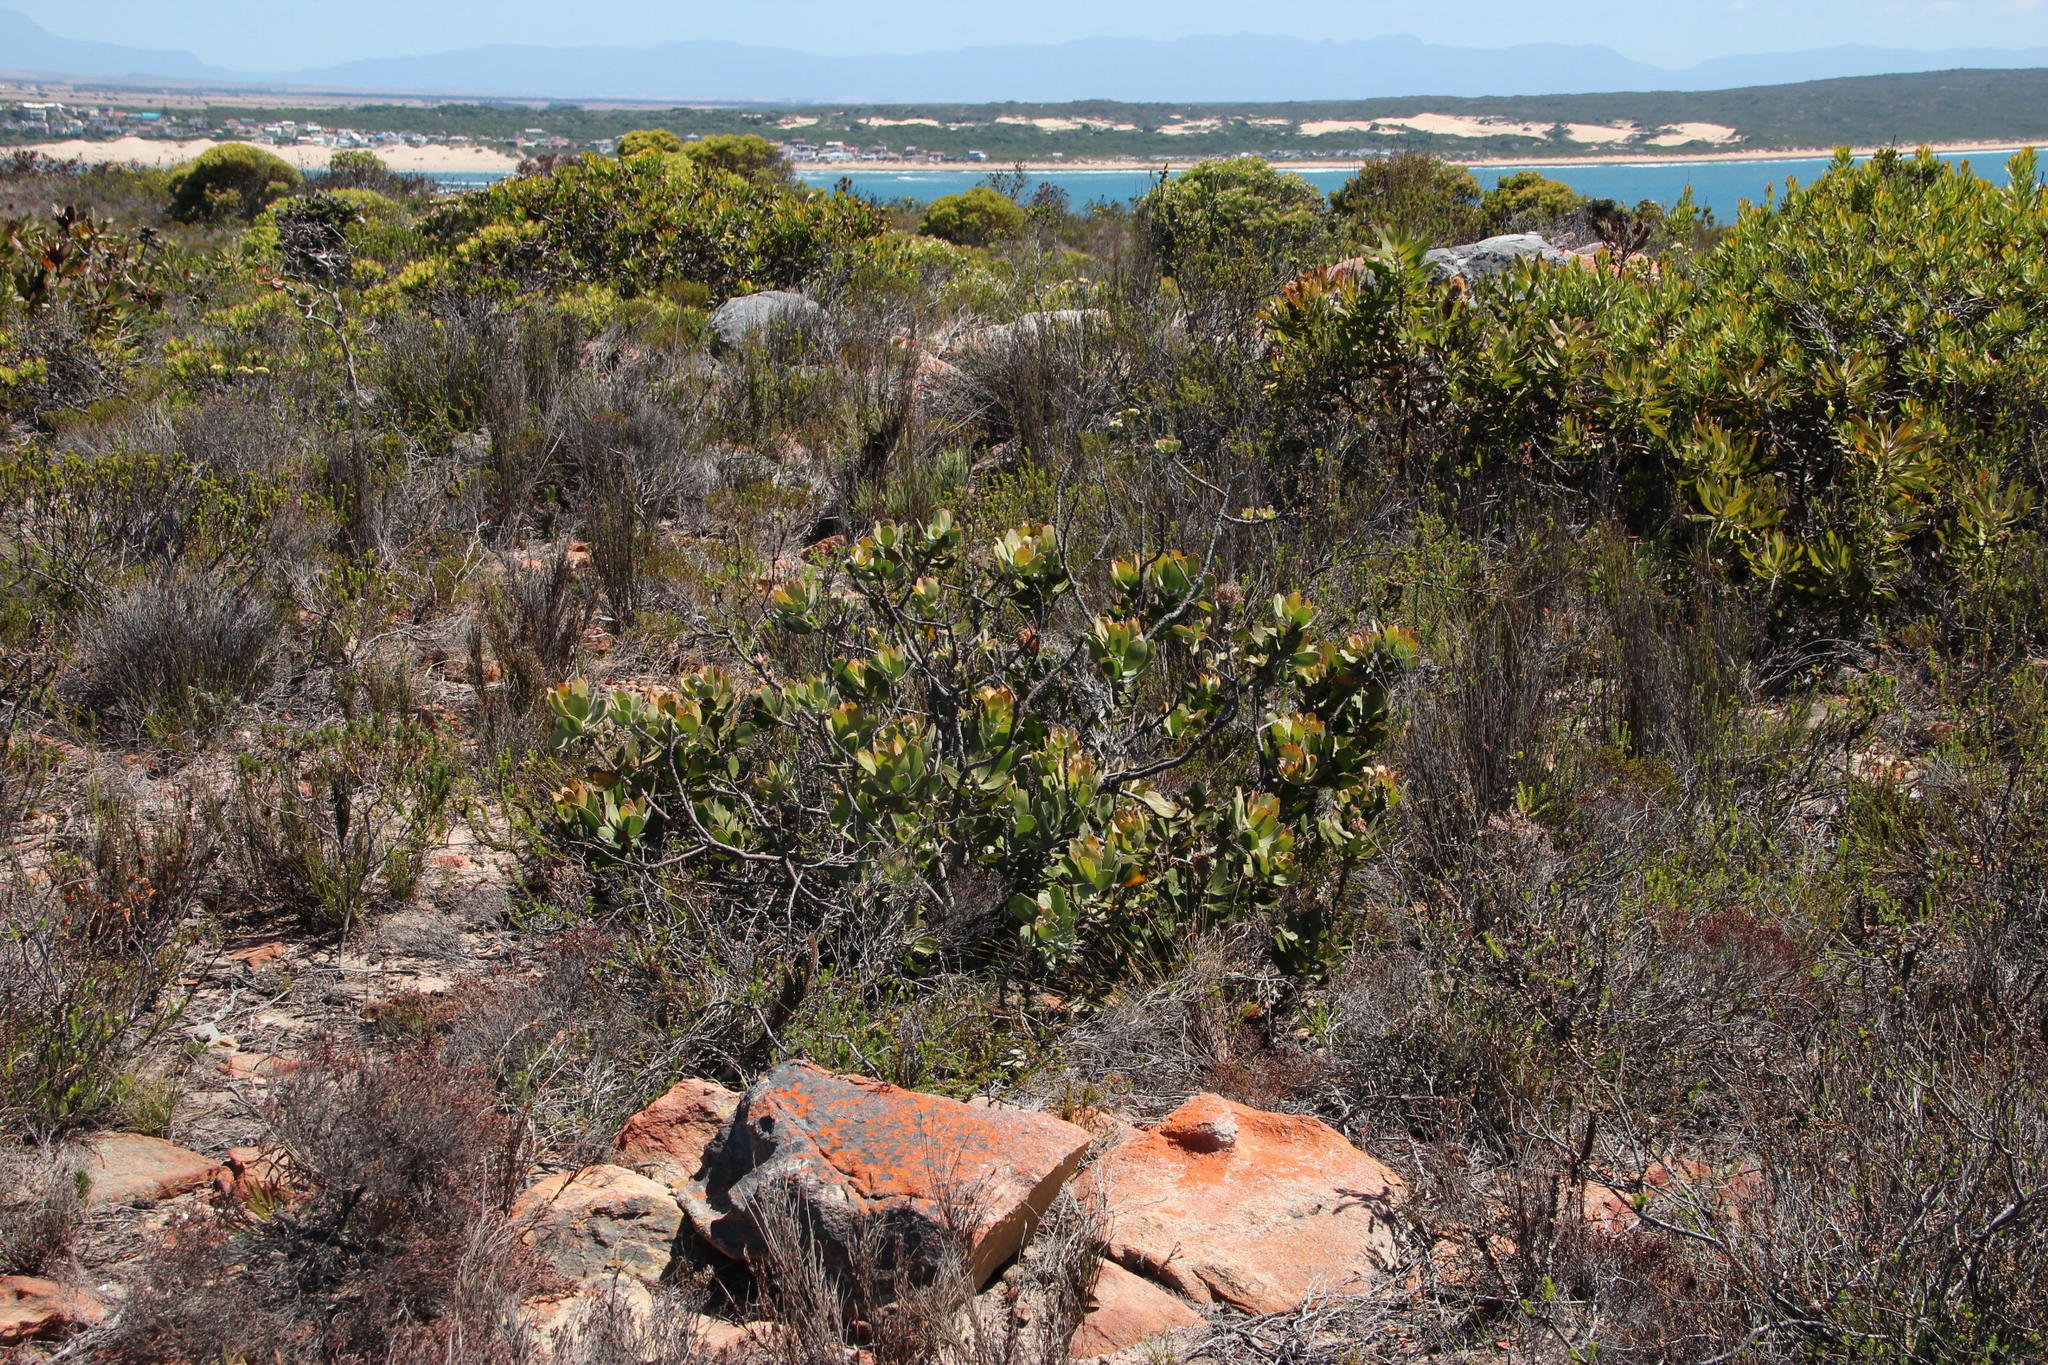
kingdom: Plantae
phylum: Tracheophyta
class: Magnoliopsida
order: Proteales
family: Proteaceae
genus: Leucospermum
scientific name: Leucospermum cuneiforme
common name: Common pincushion
